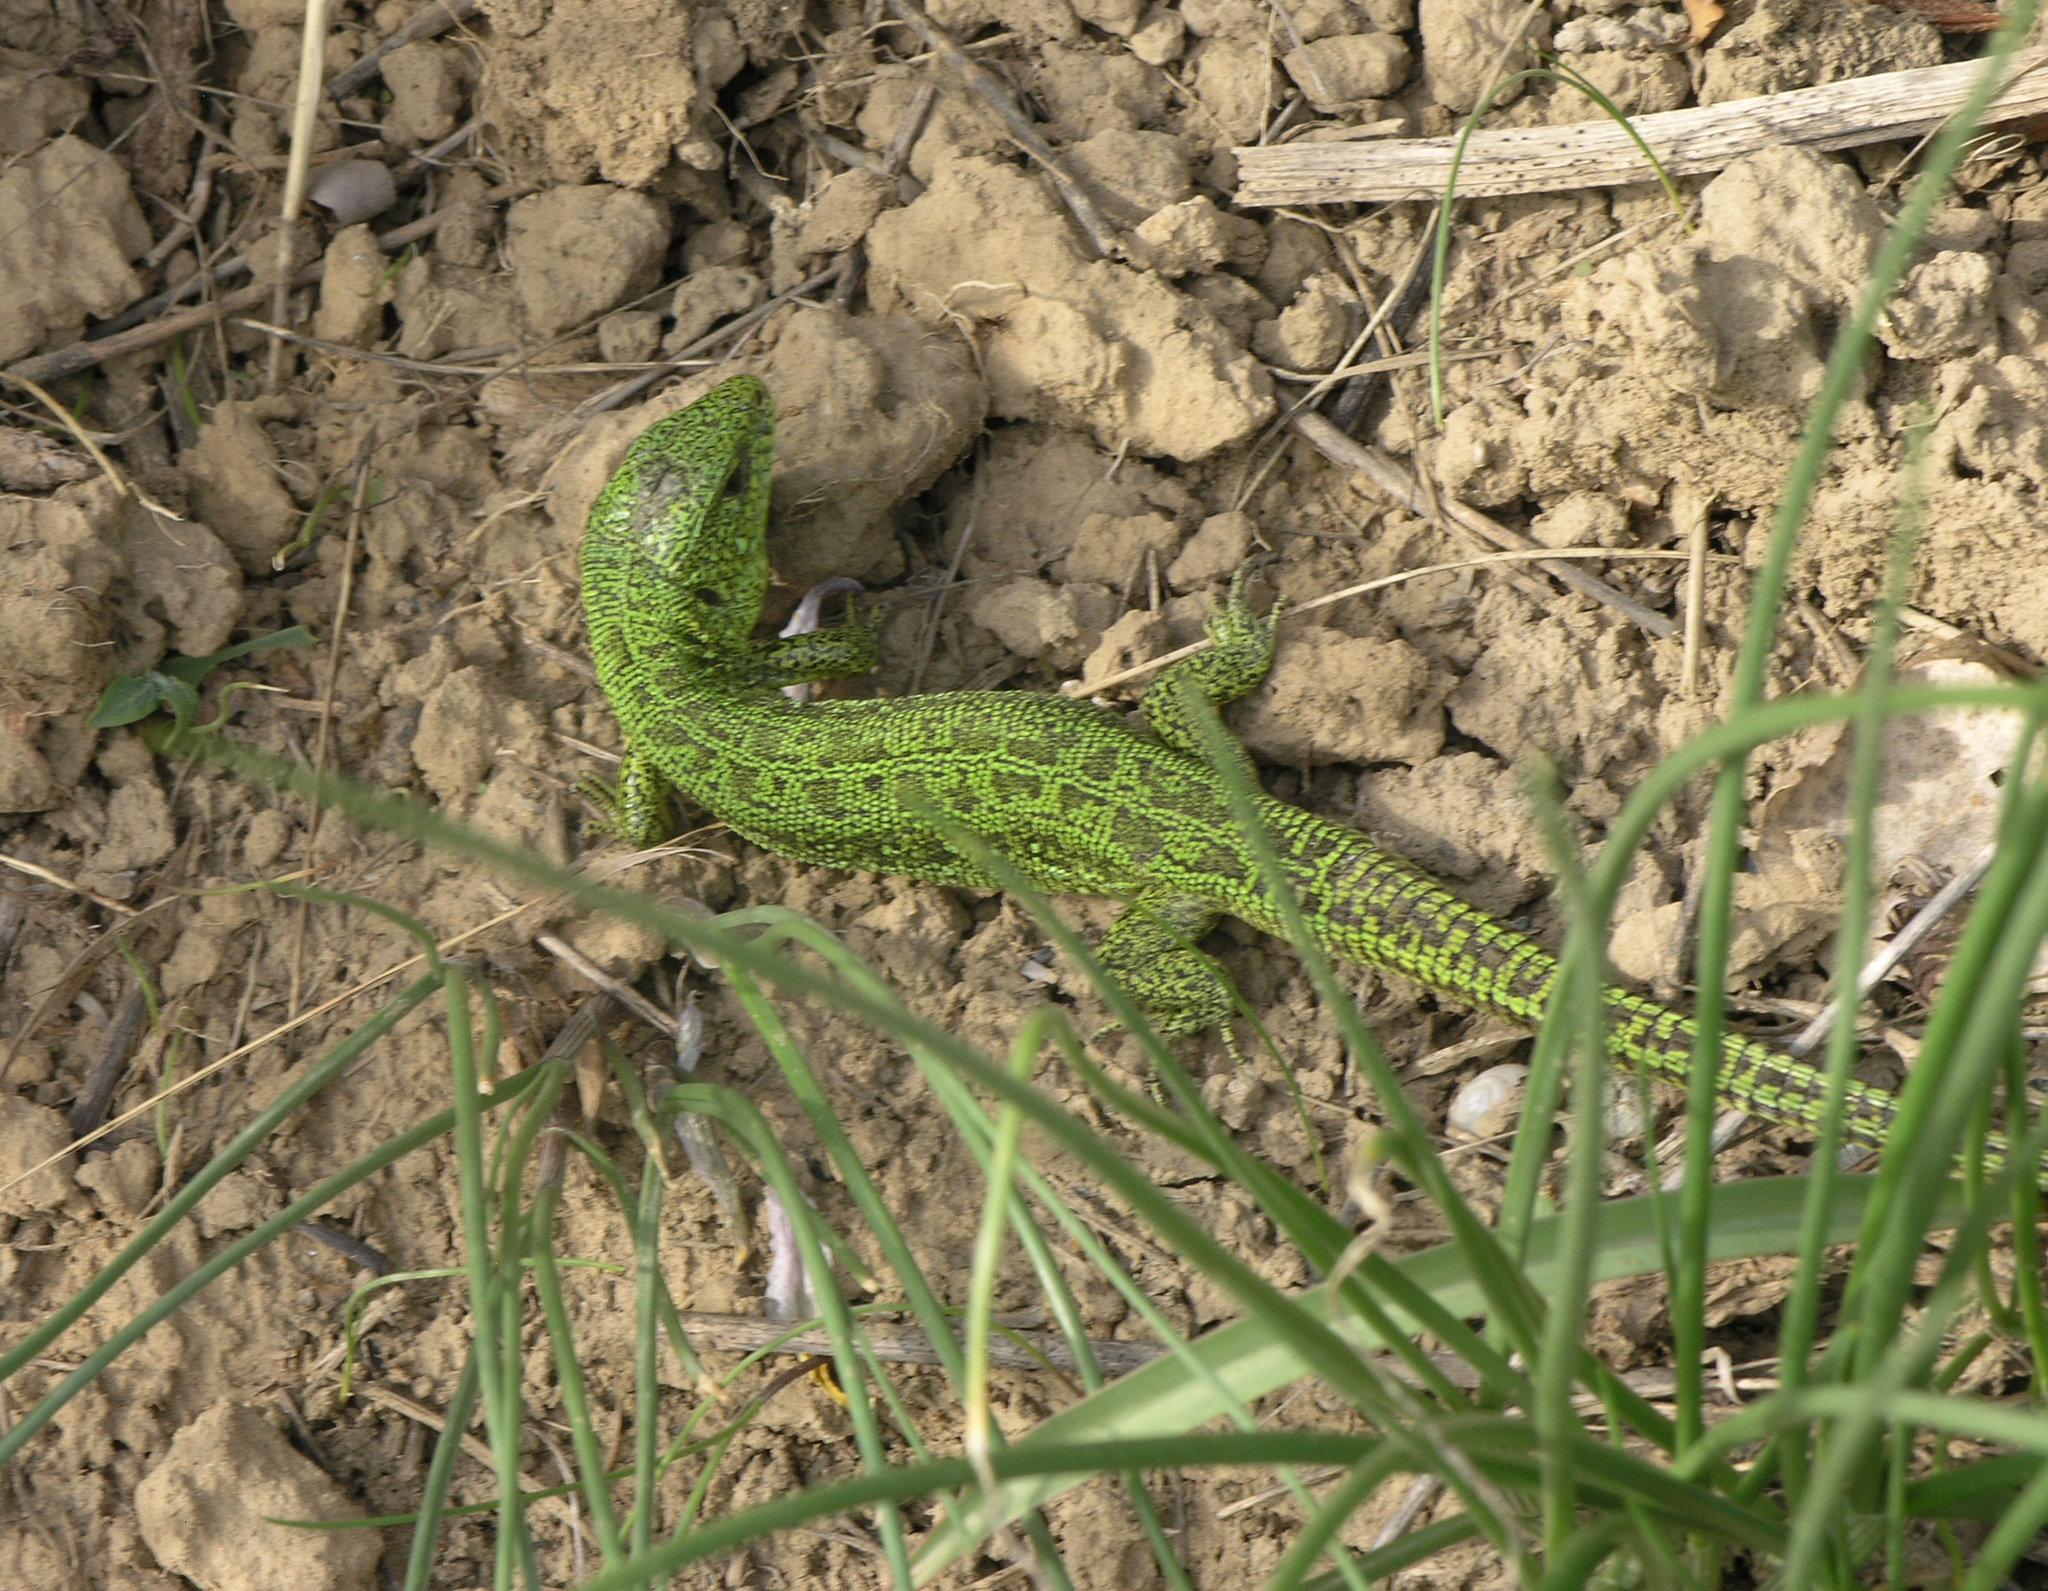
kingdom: Animalia
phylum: Chordata
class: Squamata
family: Lacertidae
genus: Lacerta
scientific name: Lacerta agilis
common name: Sand lizard
